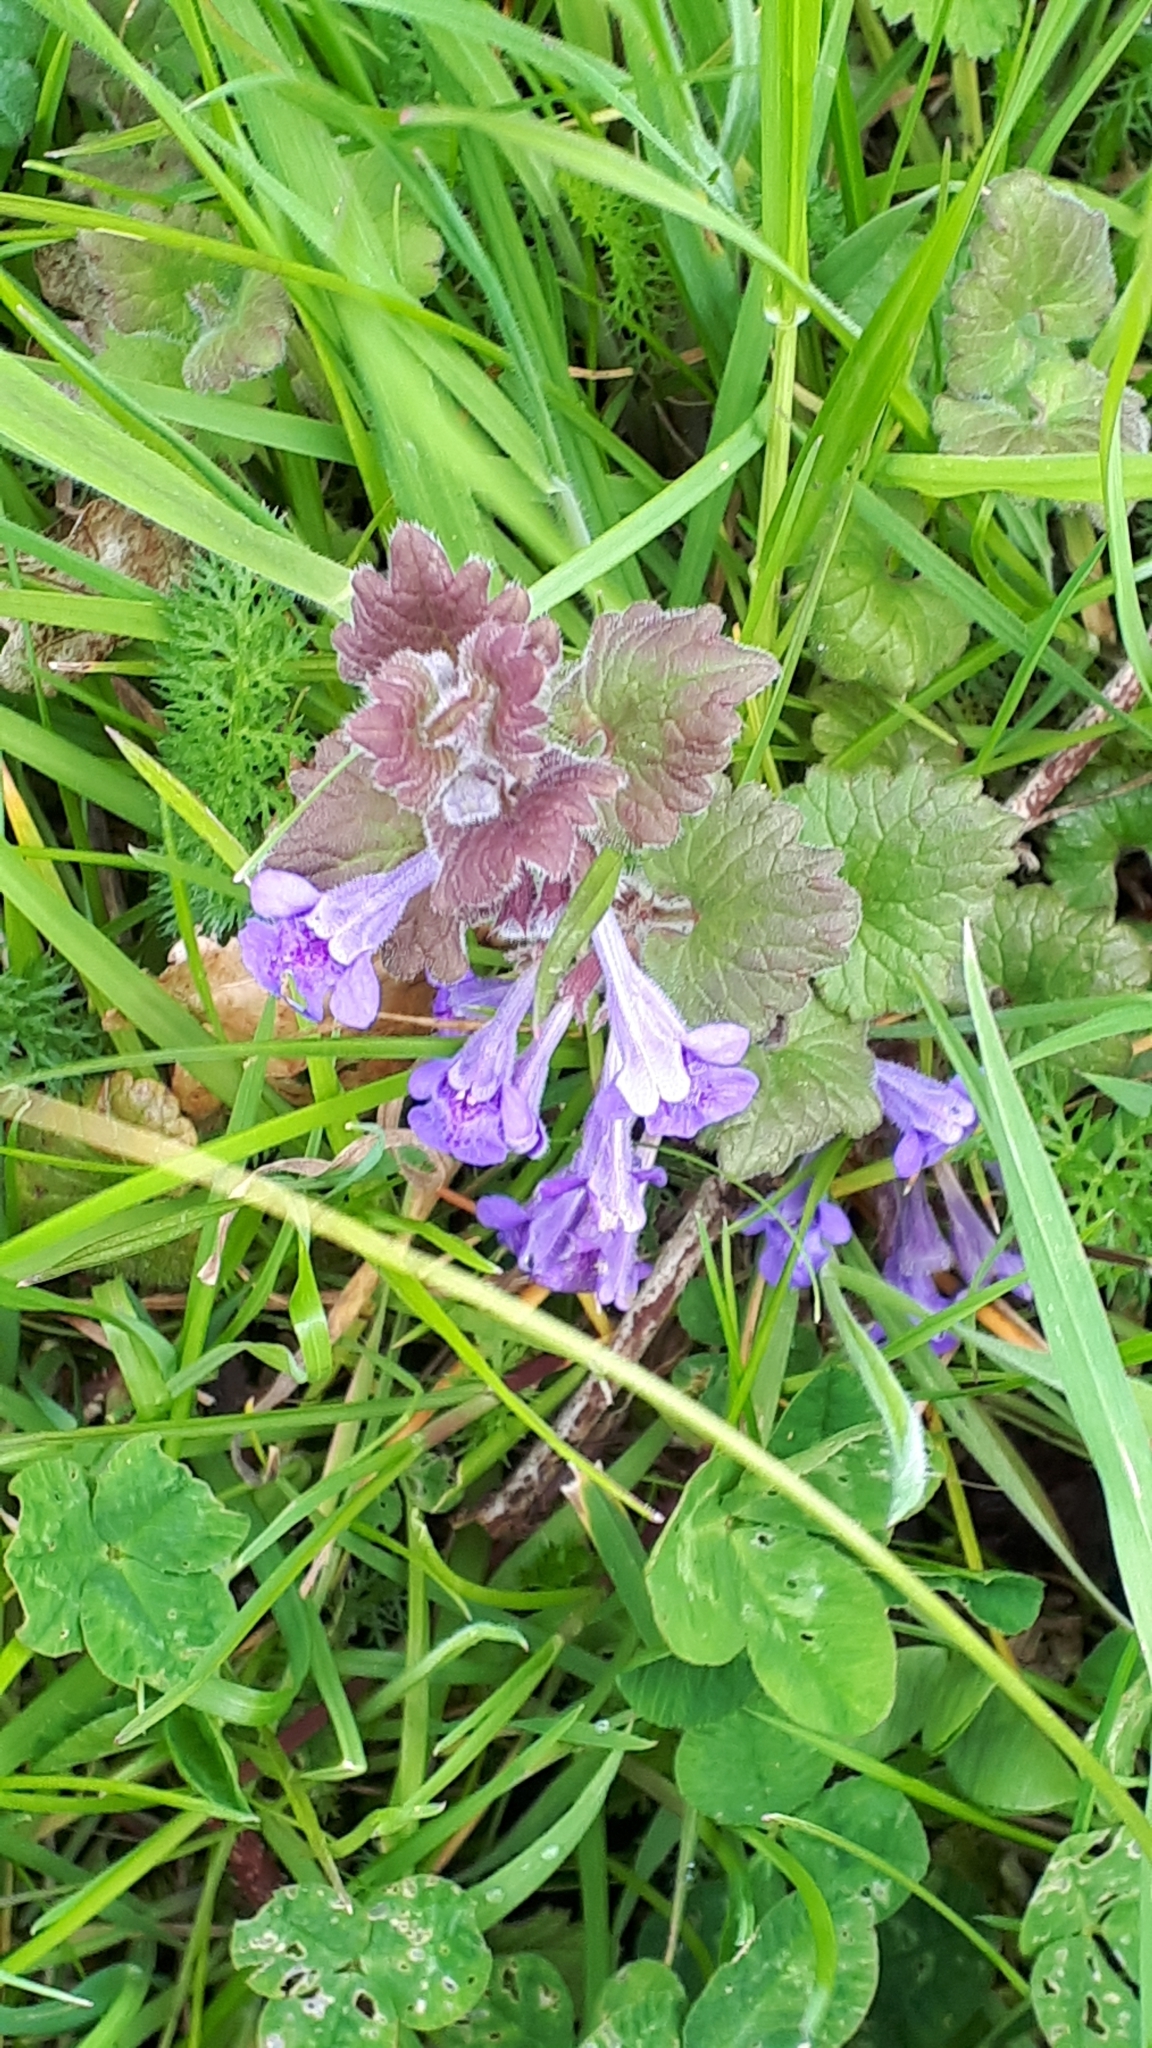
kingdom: Plantae
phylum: Tracheophyta
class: Magnoliopsida
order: Lamiales
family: Lamiaceae
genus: Glechoma
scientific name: Glechoma hederacea
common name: Ground ivy
